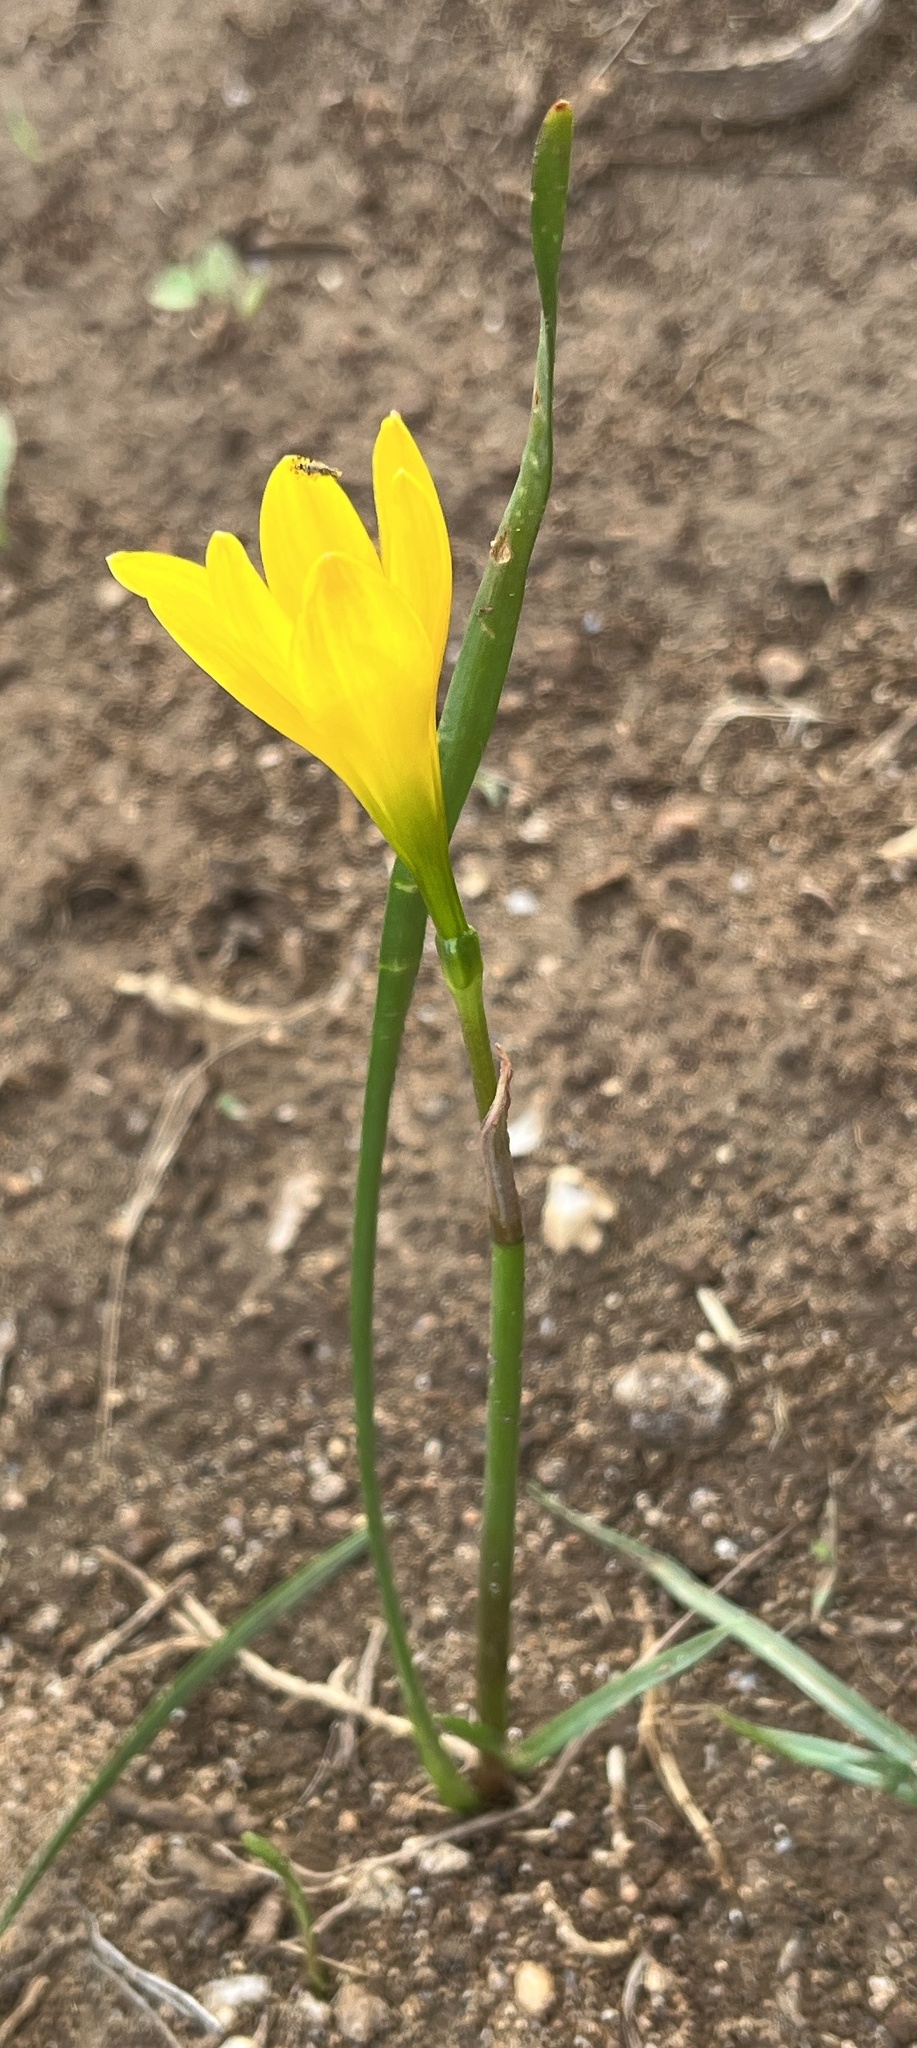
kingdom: Plantae
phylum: Tracheophyta
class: Liliopsida
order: Asparagales
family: Amaryllidaceae
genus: Zephyranthes
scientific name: Zephyranthes citrina
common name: Citron zephyrlily
